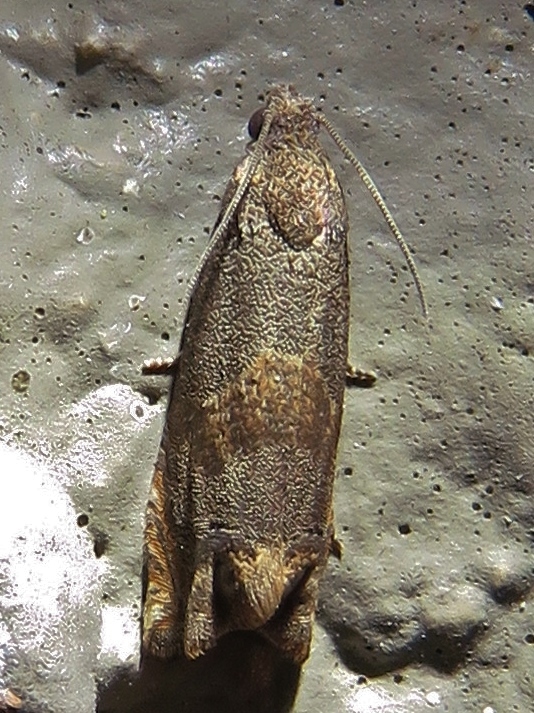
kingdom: Animalia
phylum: Arthropoda
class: Insecta
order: Lepidoptera
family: Tortricidae
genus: Epiblema
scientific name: Epiblema strenuana
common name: Ragweed borer moth
